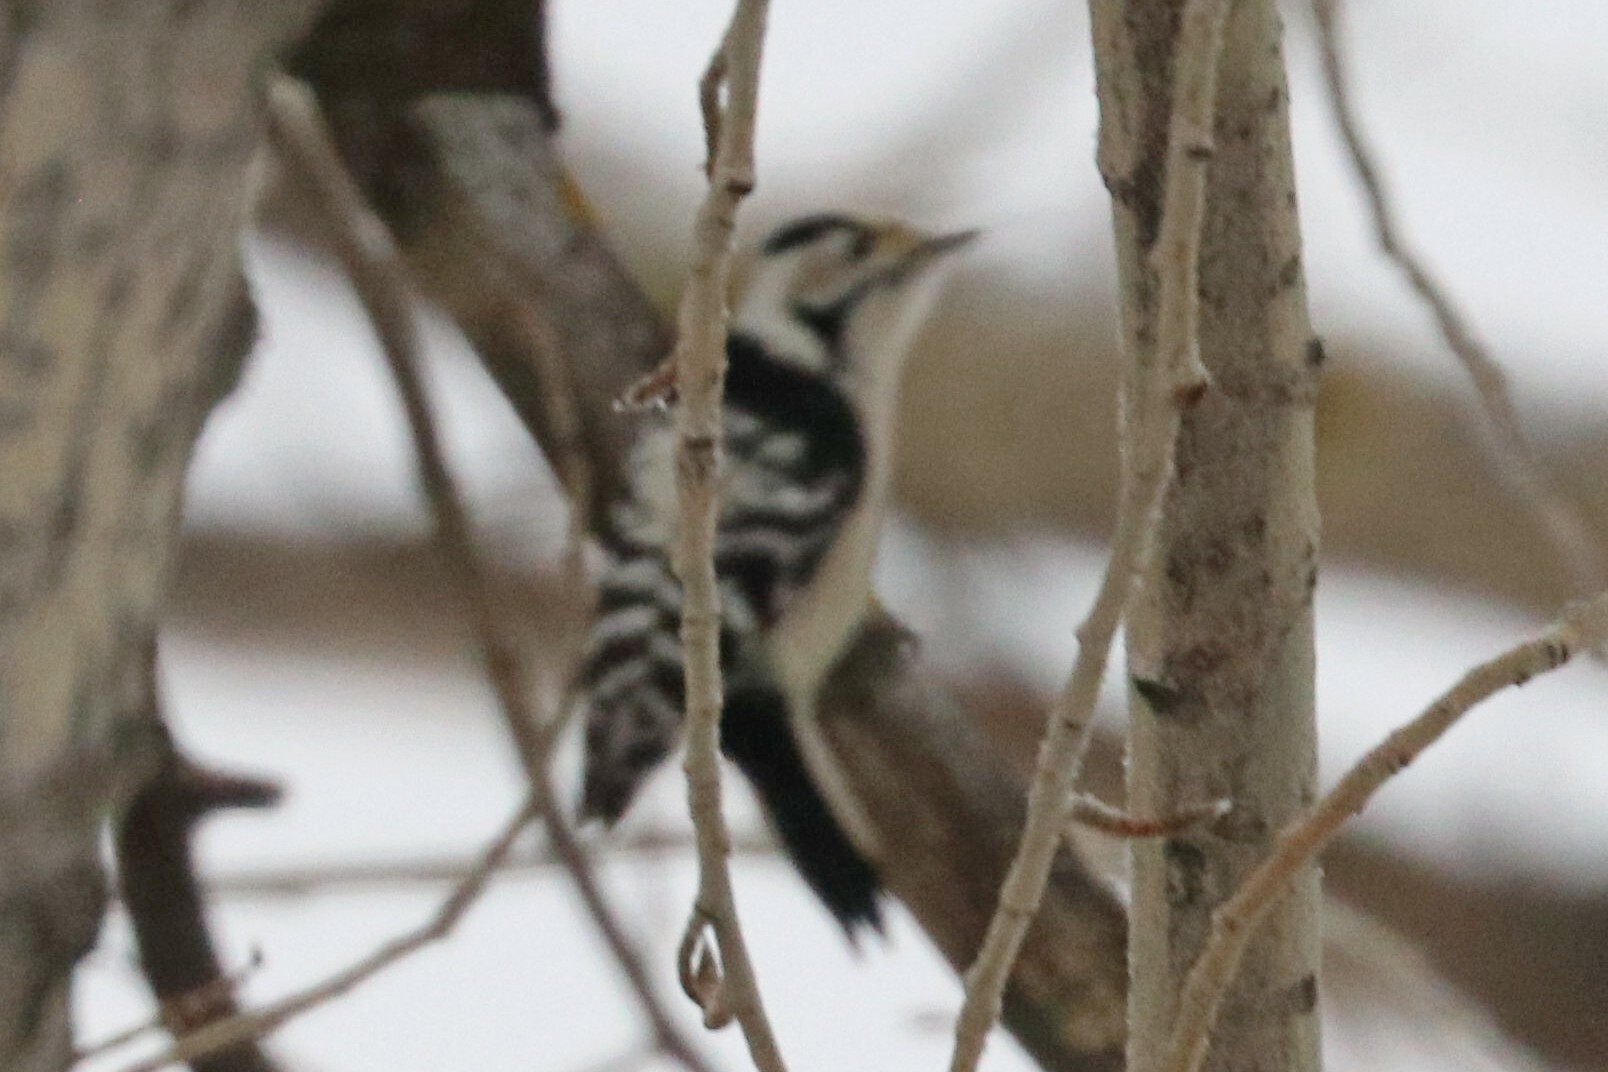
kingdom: Animalia
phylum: Chordata
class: Aves
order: Piciformes
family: Picidae
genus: Dryobates
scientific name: Dryobates minor
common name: Lesser spotted woodpecker
